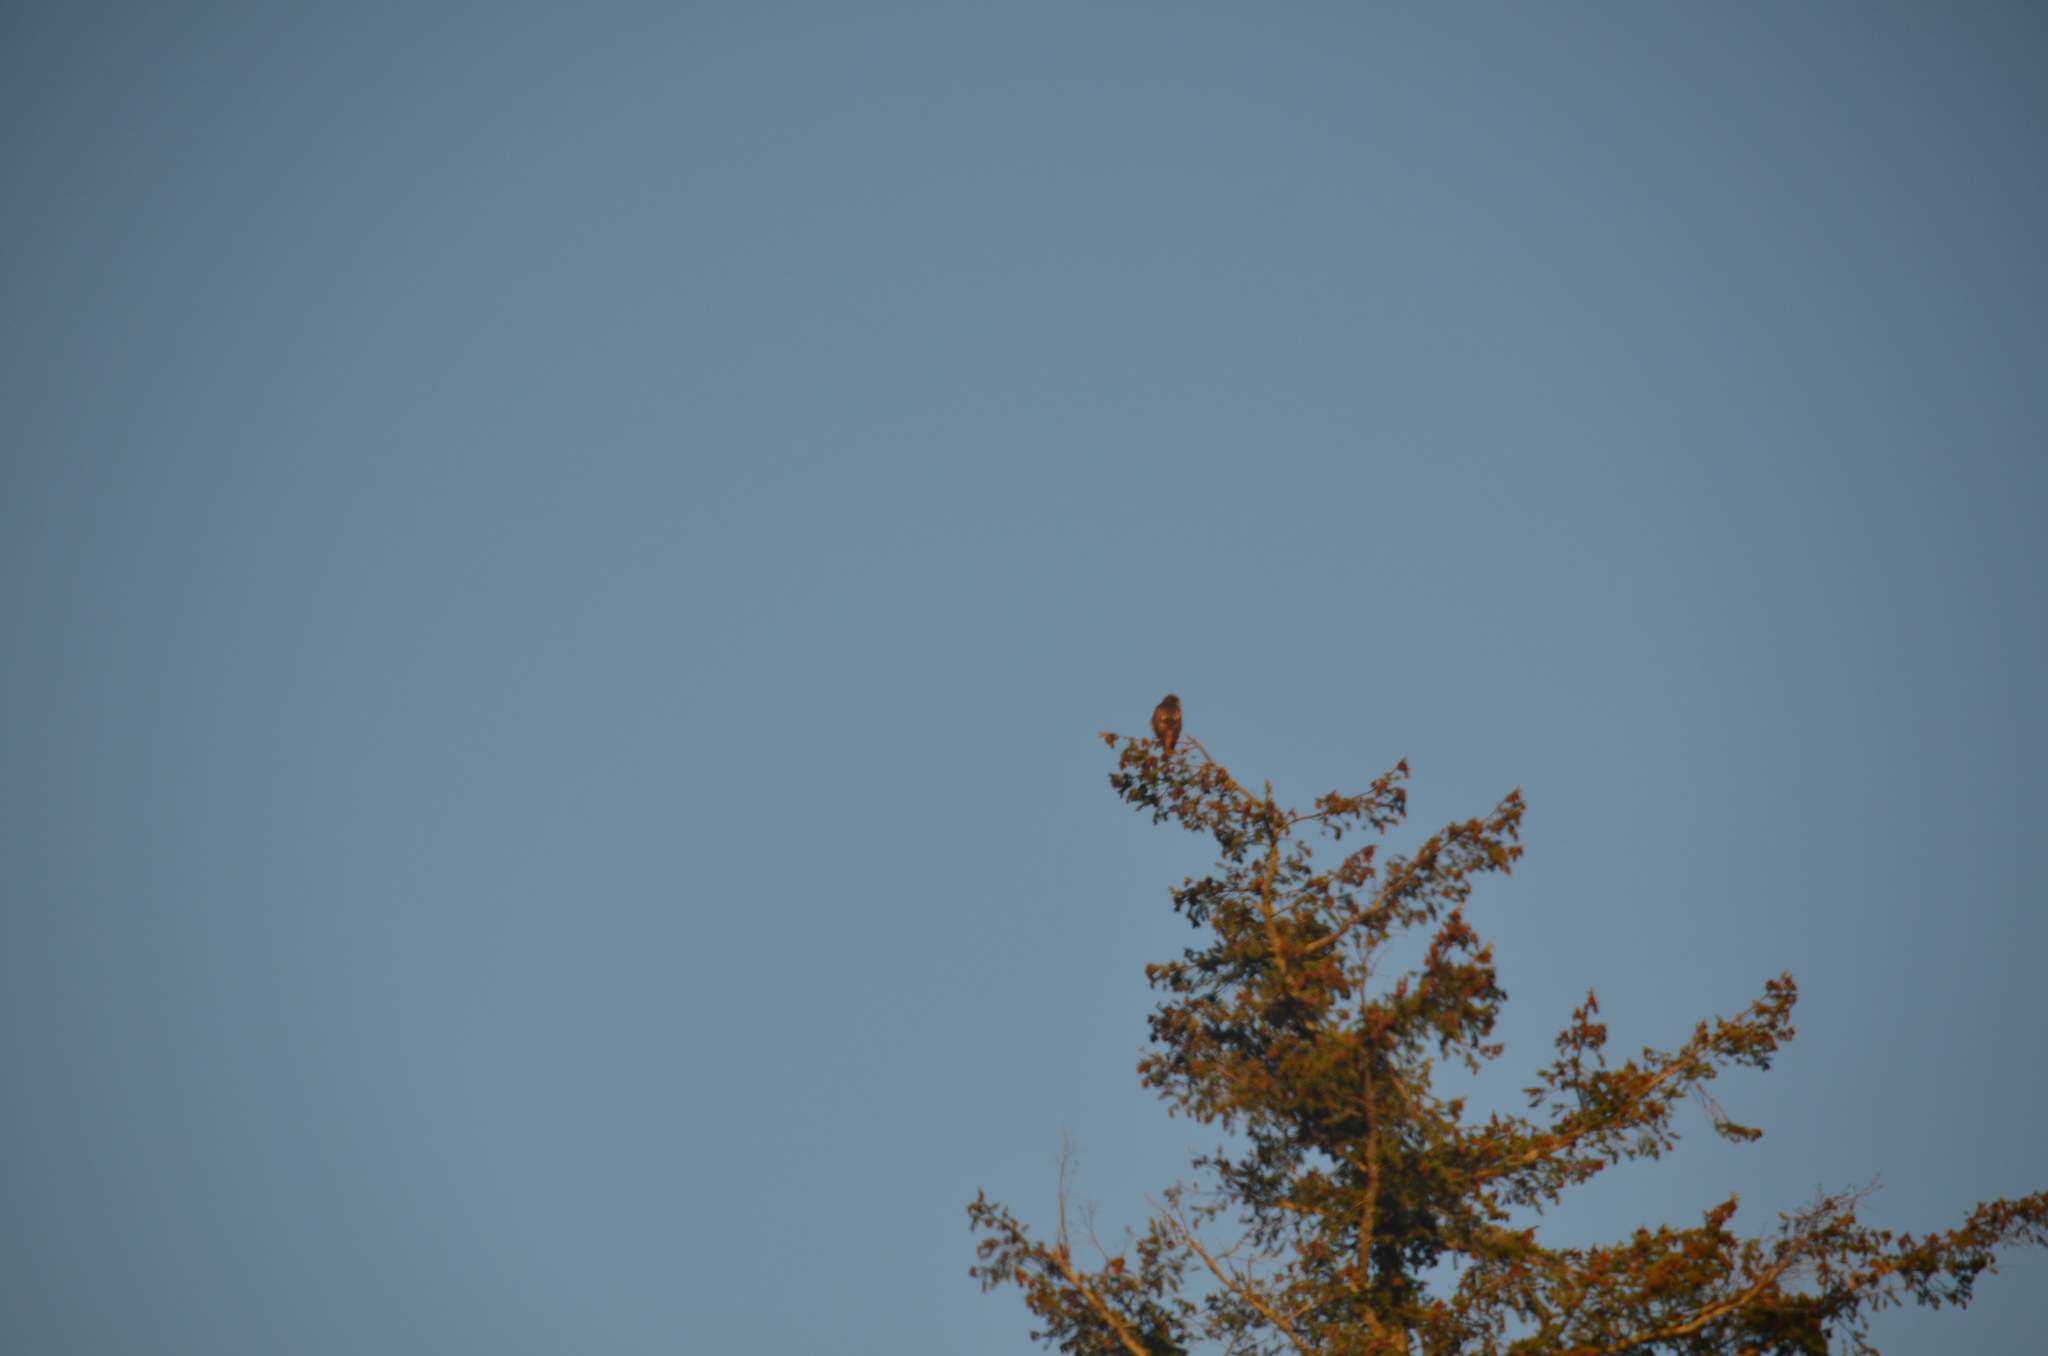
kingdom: Animalia
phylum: Chordata
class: Aves
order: Accipitriformes
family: Accipitridae
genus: Buteo
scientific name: Buteo jamaicensis
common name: Red-tailed hawk
